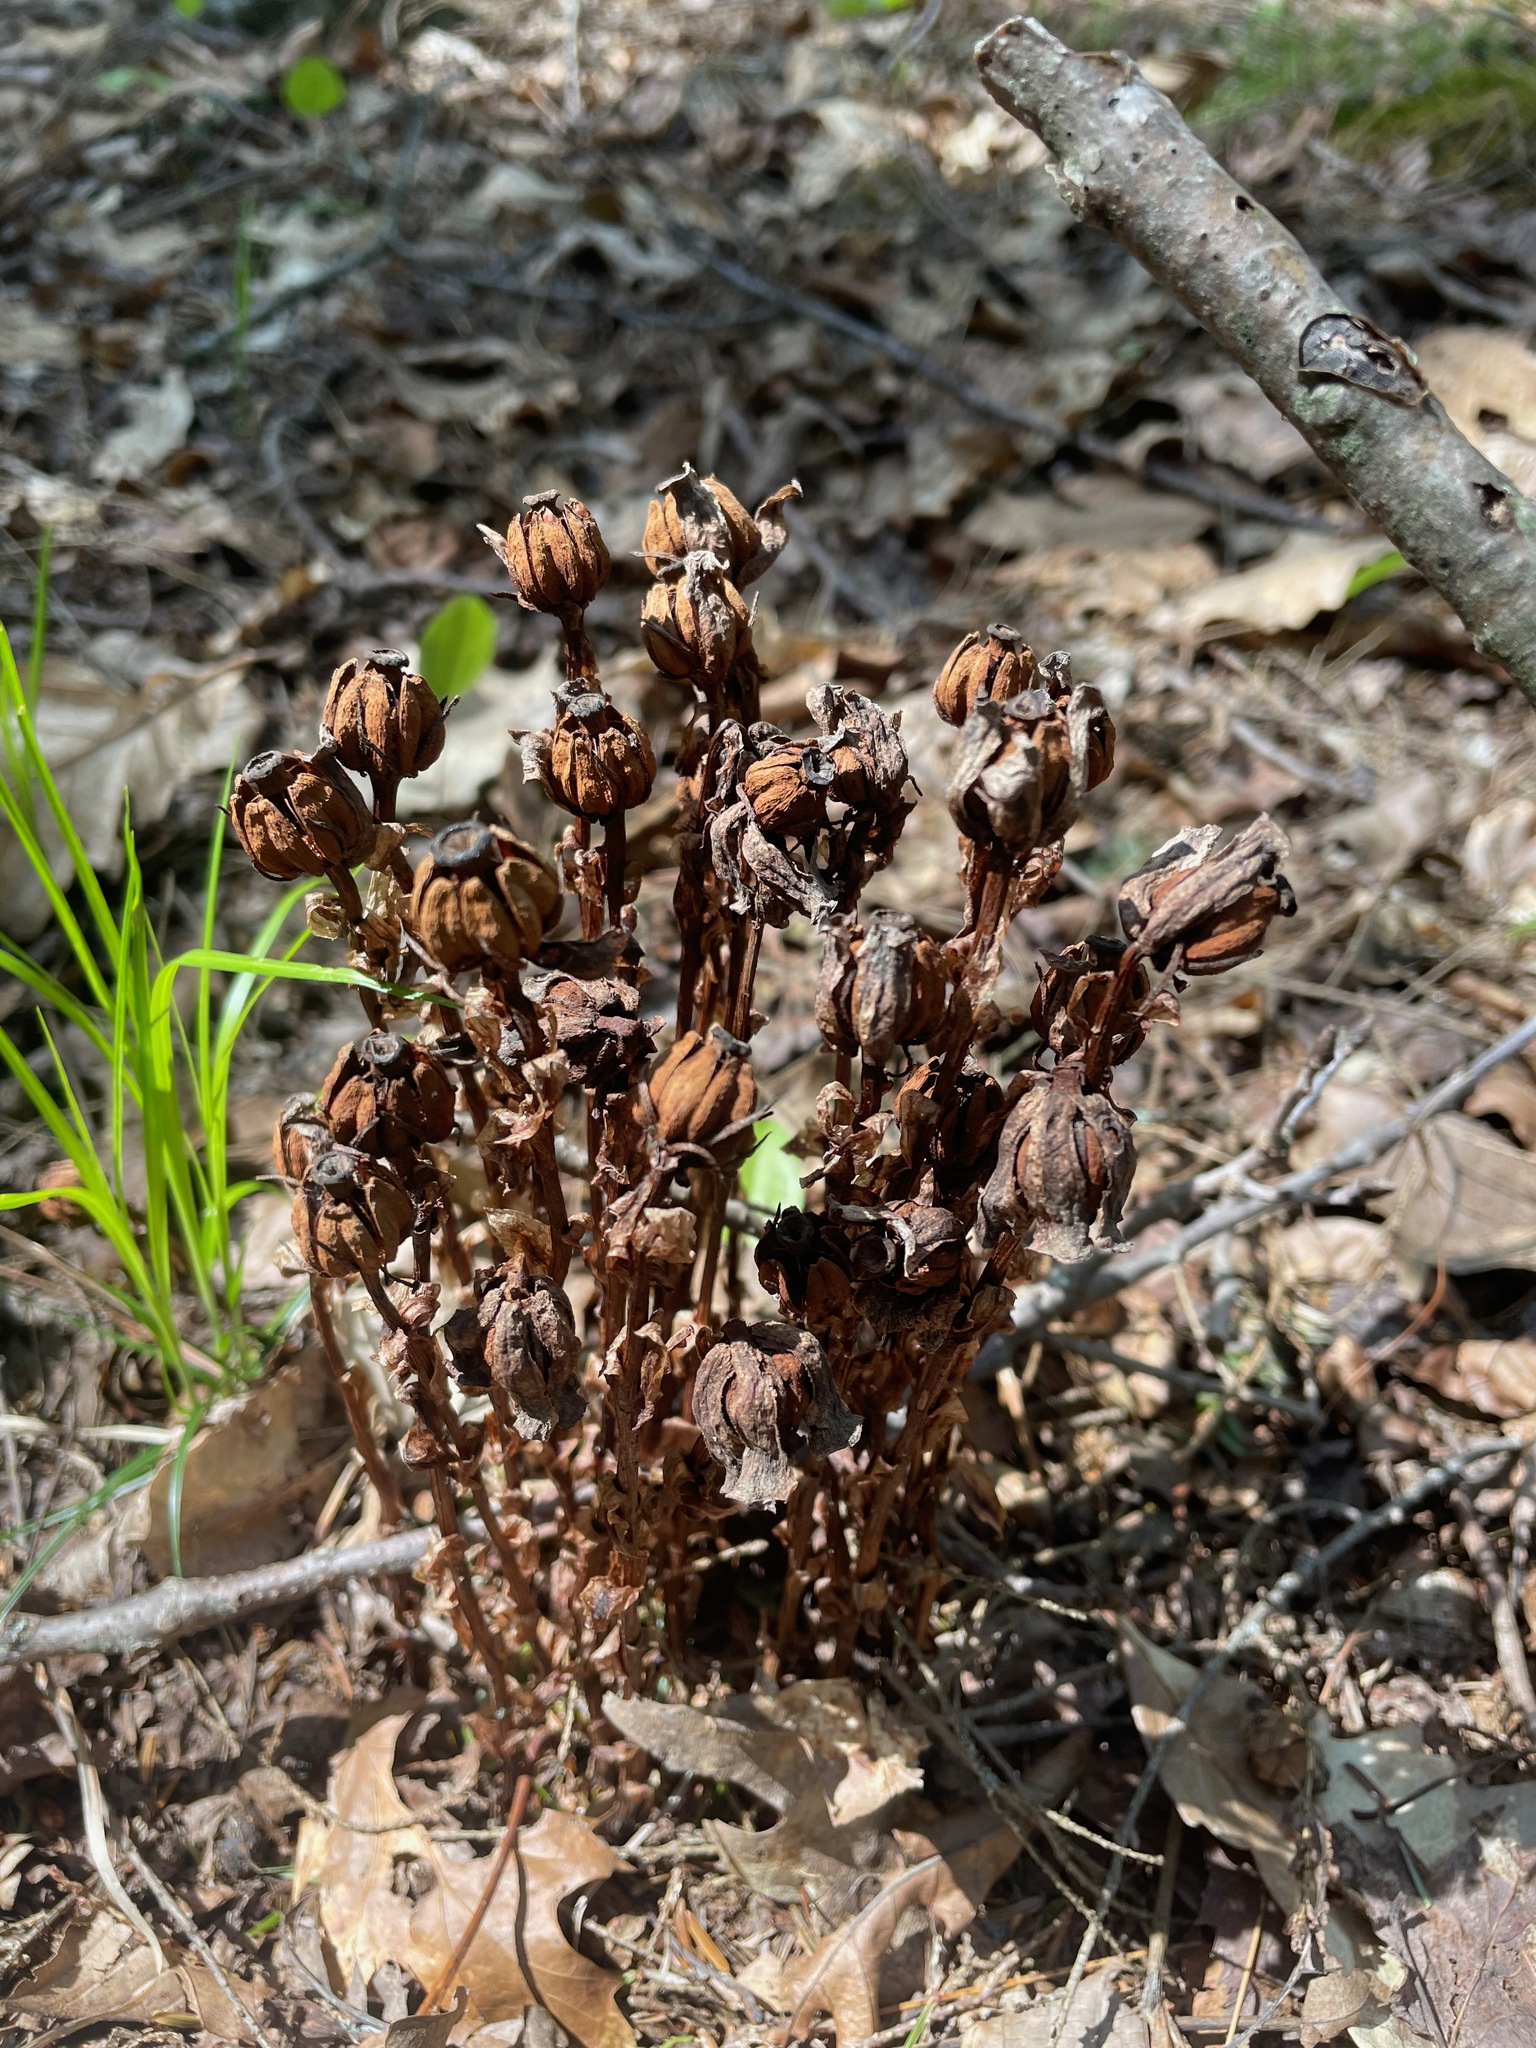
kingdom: Plantae
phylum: Tracheophyta
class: Magnoliopsida
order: Ericales
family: Ericaceae
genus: Monotropa
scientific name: Monotropa uniflora
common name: Convulsion root
